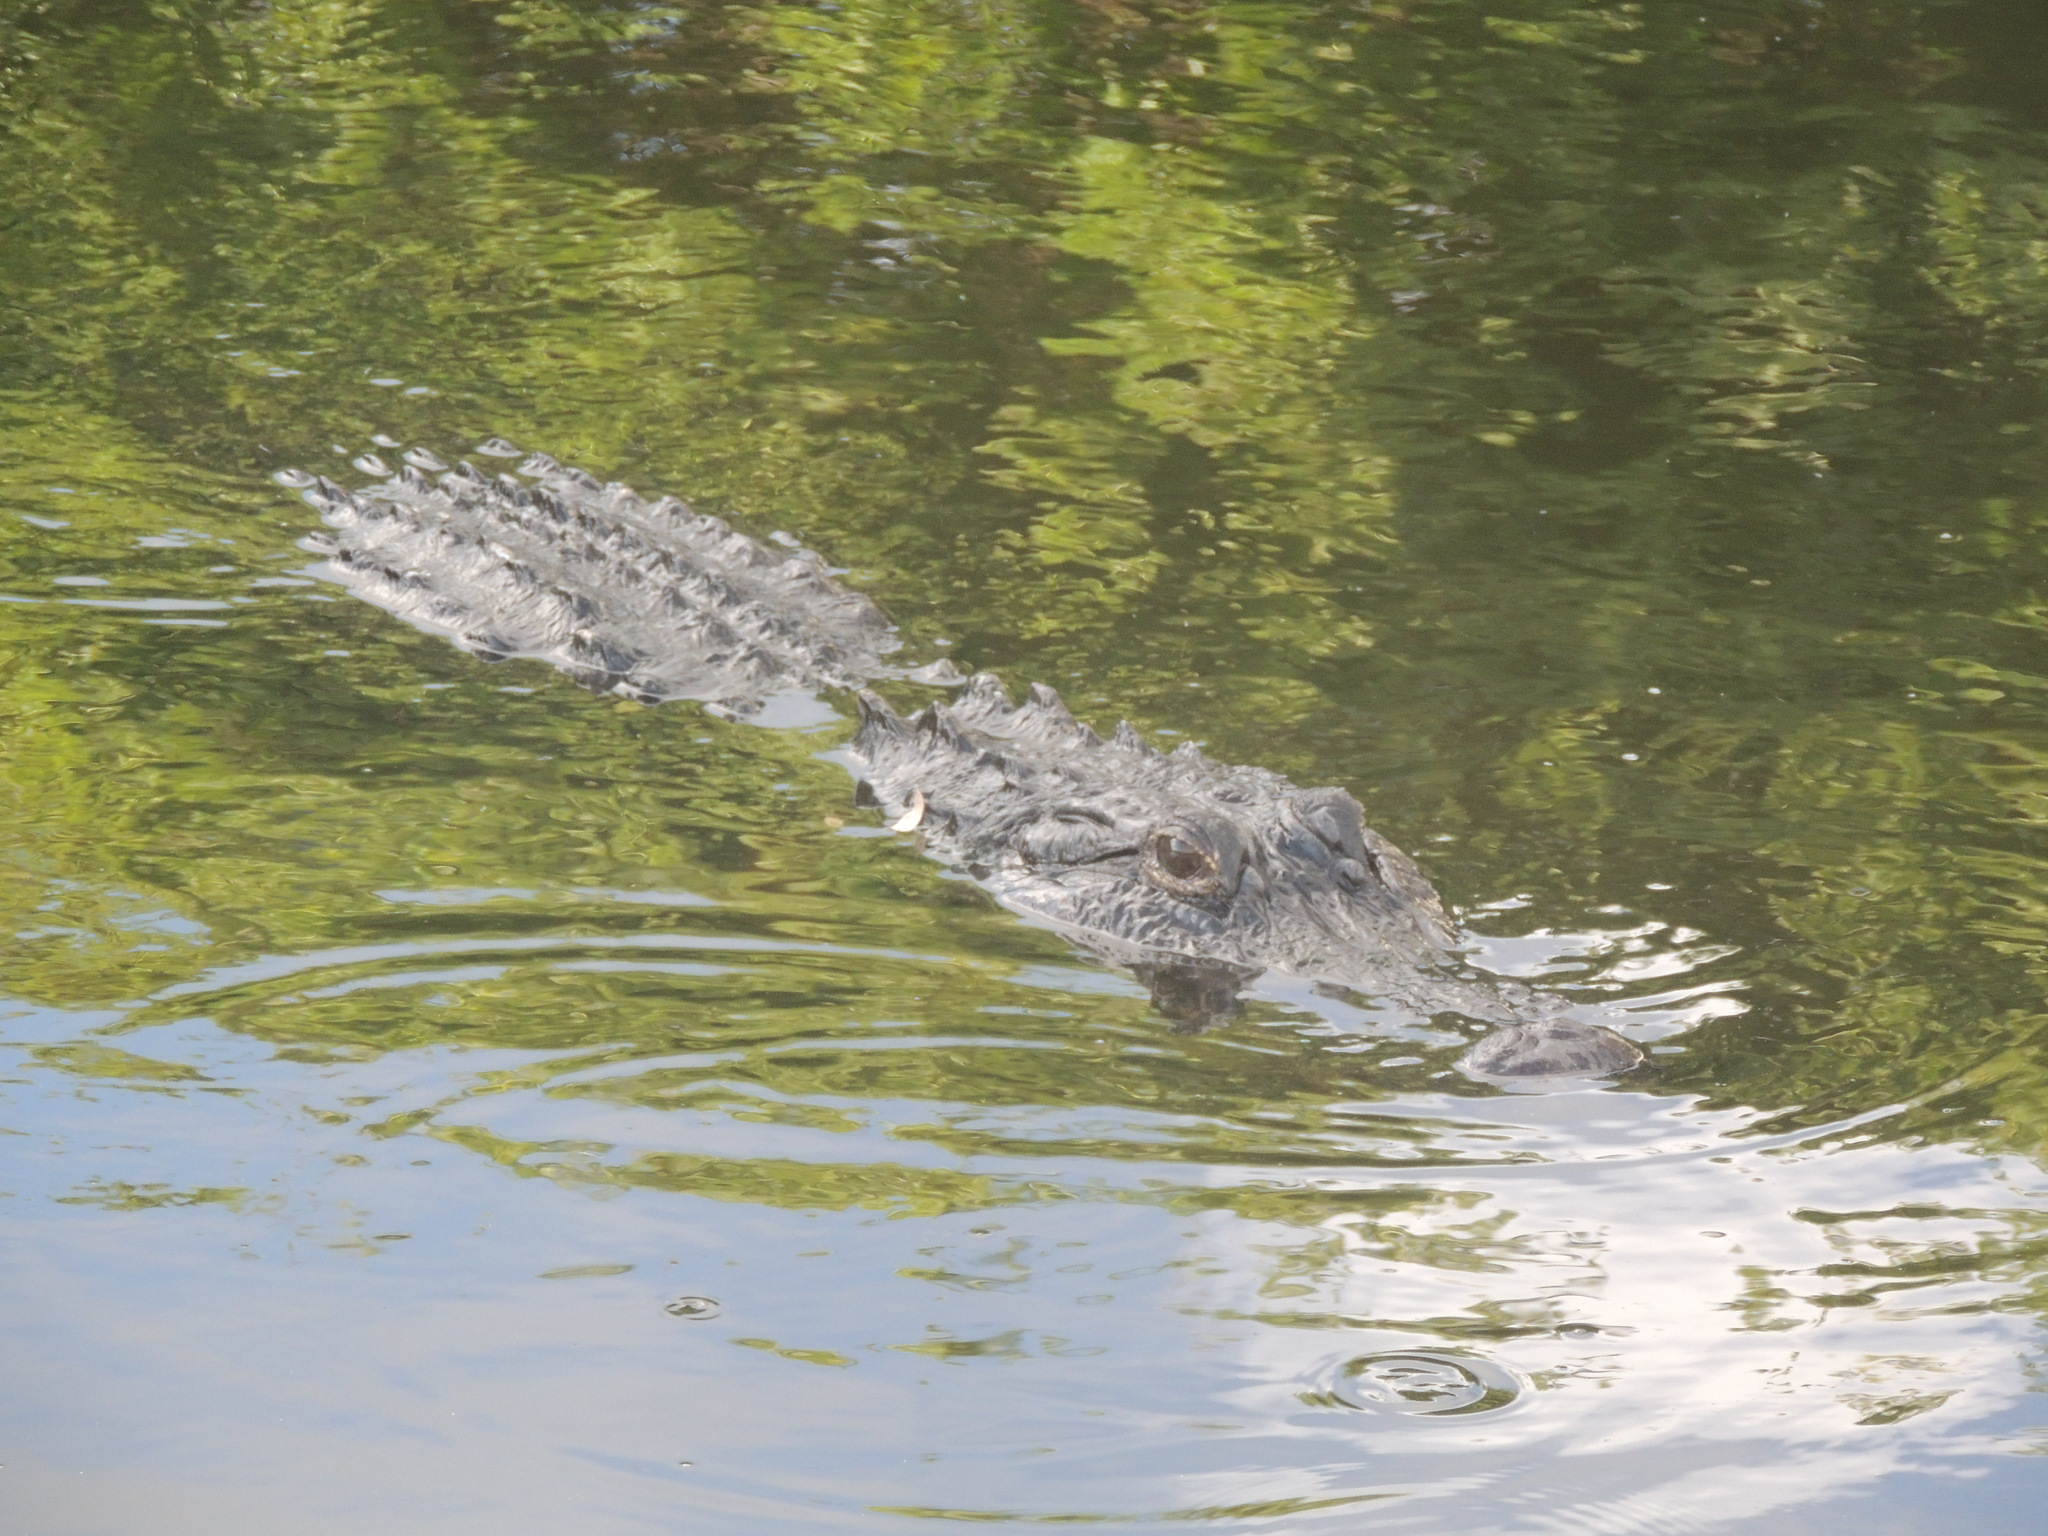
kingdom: Animalia
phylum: Chordata
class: Crocodylia
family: Alligatoridae
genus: Alligator
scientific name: Alligator mississippiensis
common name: American alligator
